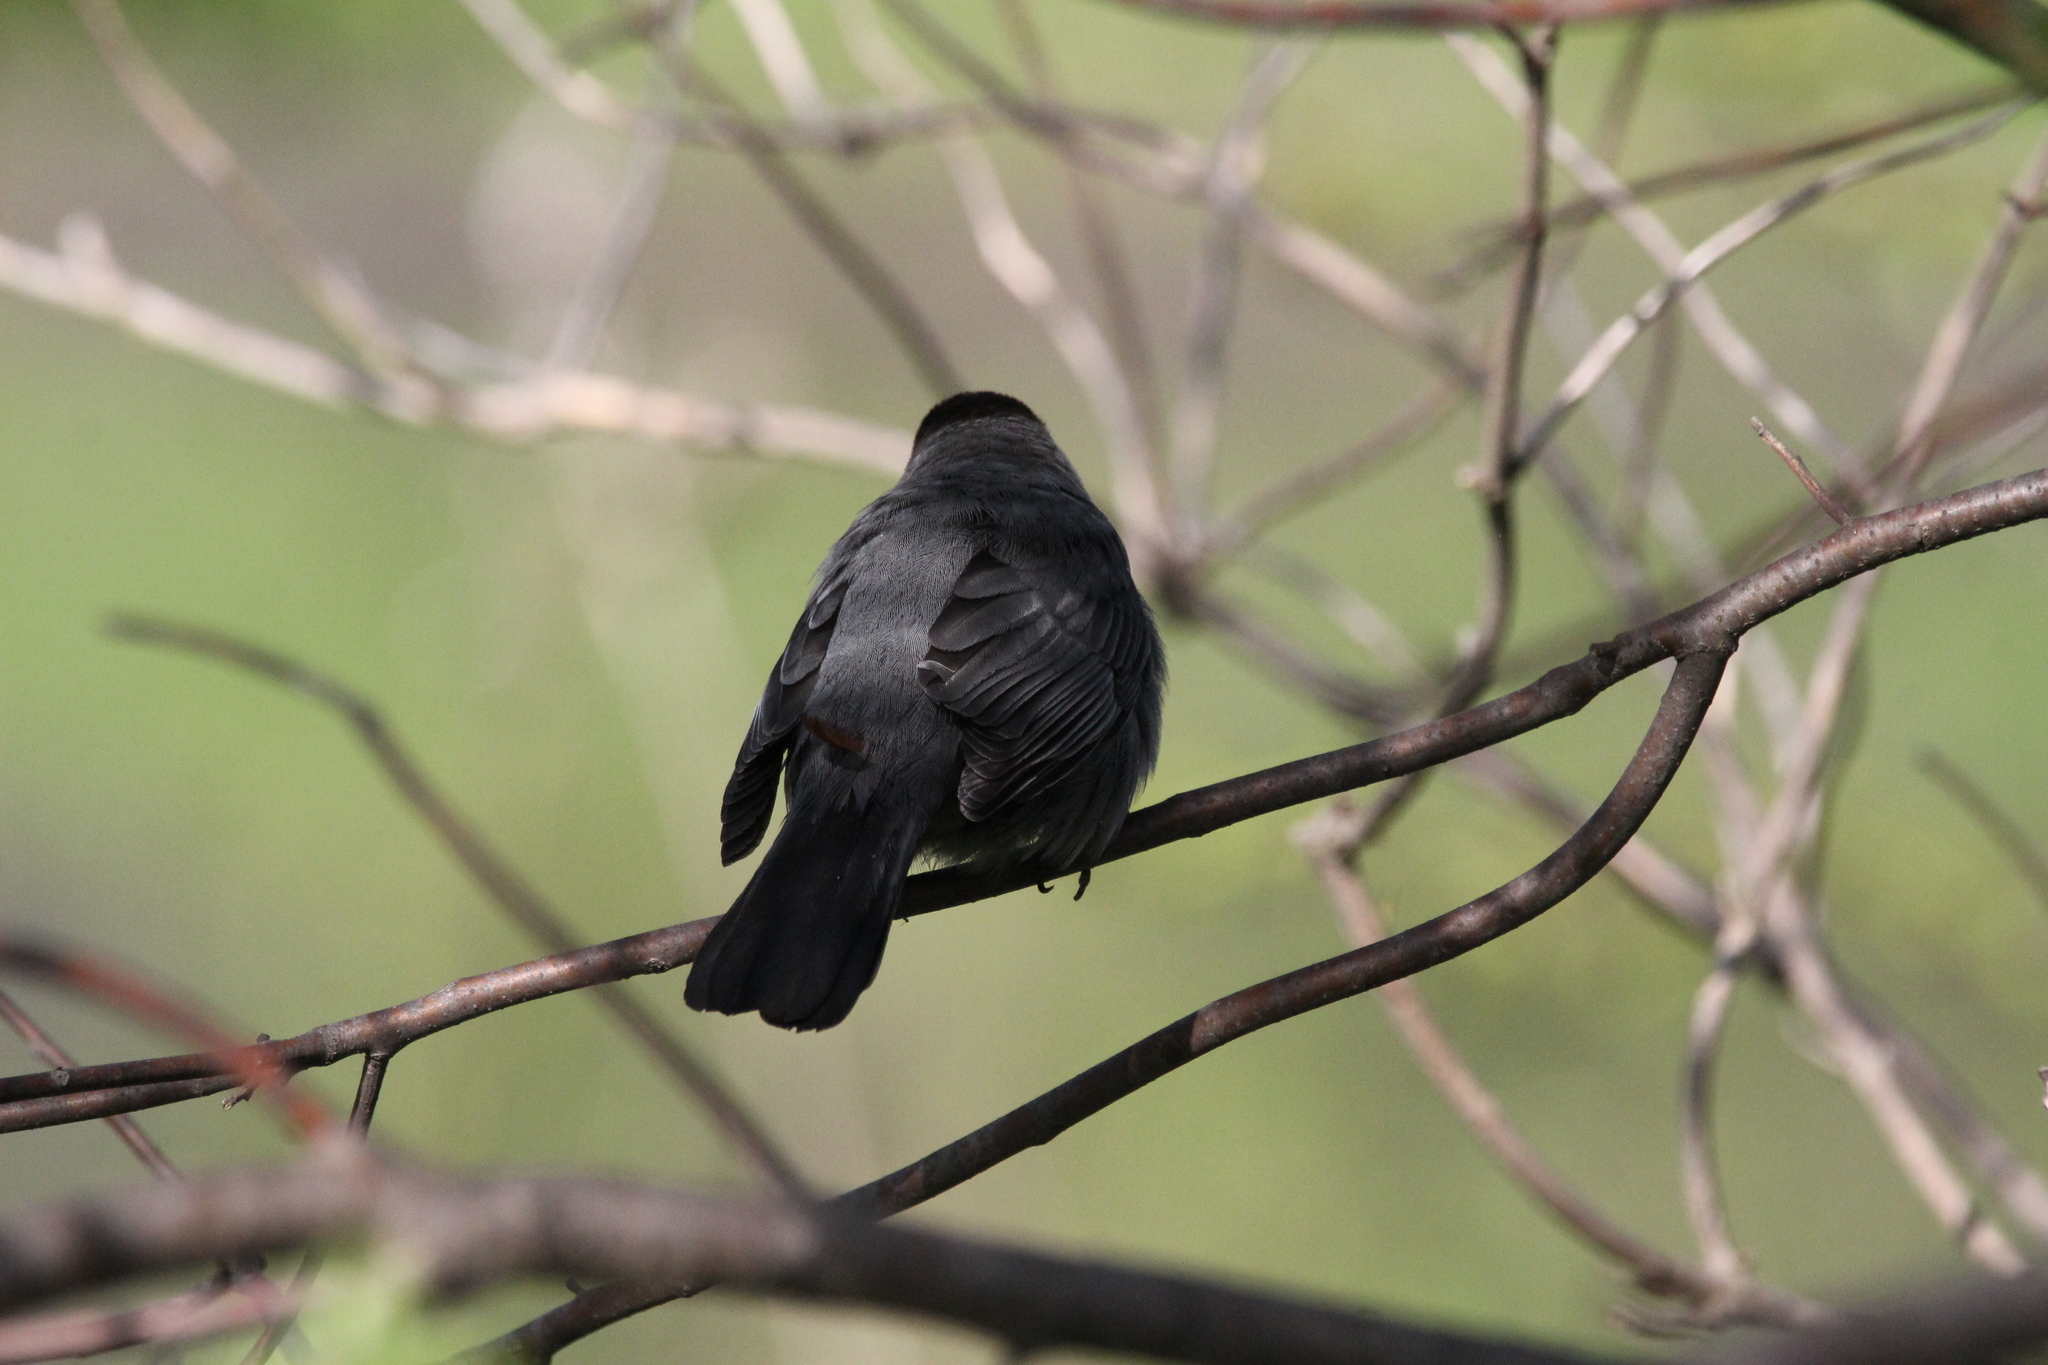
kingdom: Animalia
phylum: Chordata
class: Aves
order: Passeriformes
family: Mimidae
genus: Dumetella
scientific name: Dumetella carolinensis
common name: Gray catbird
